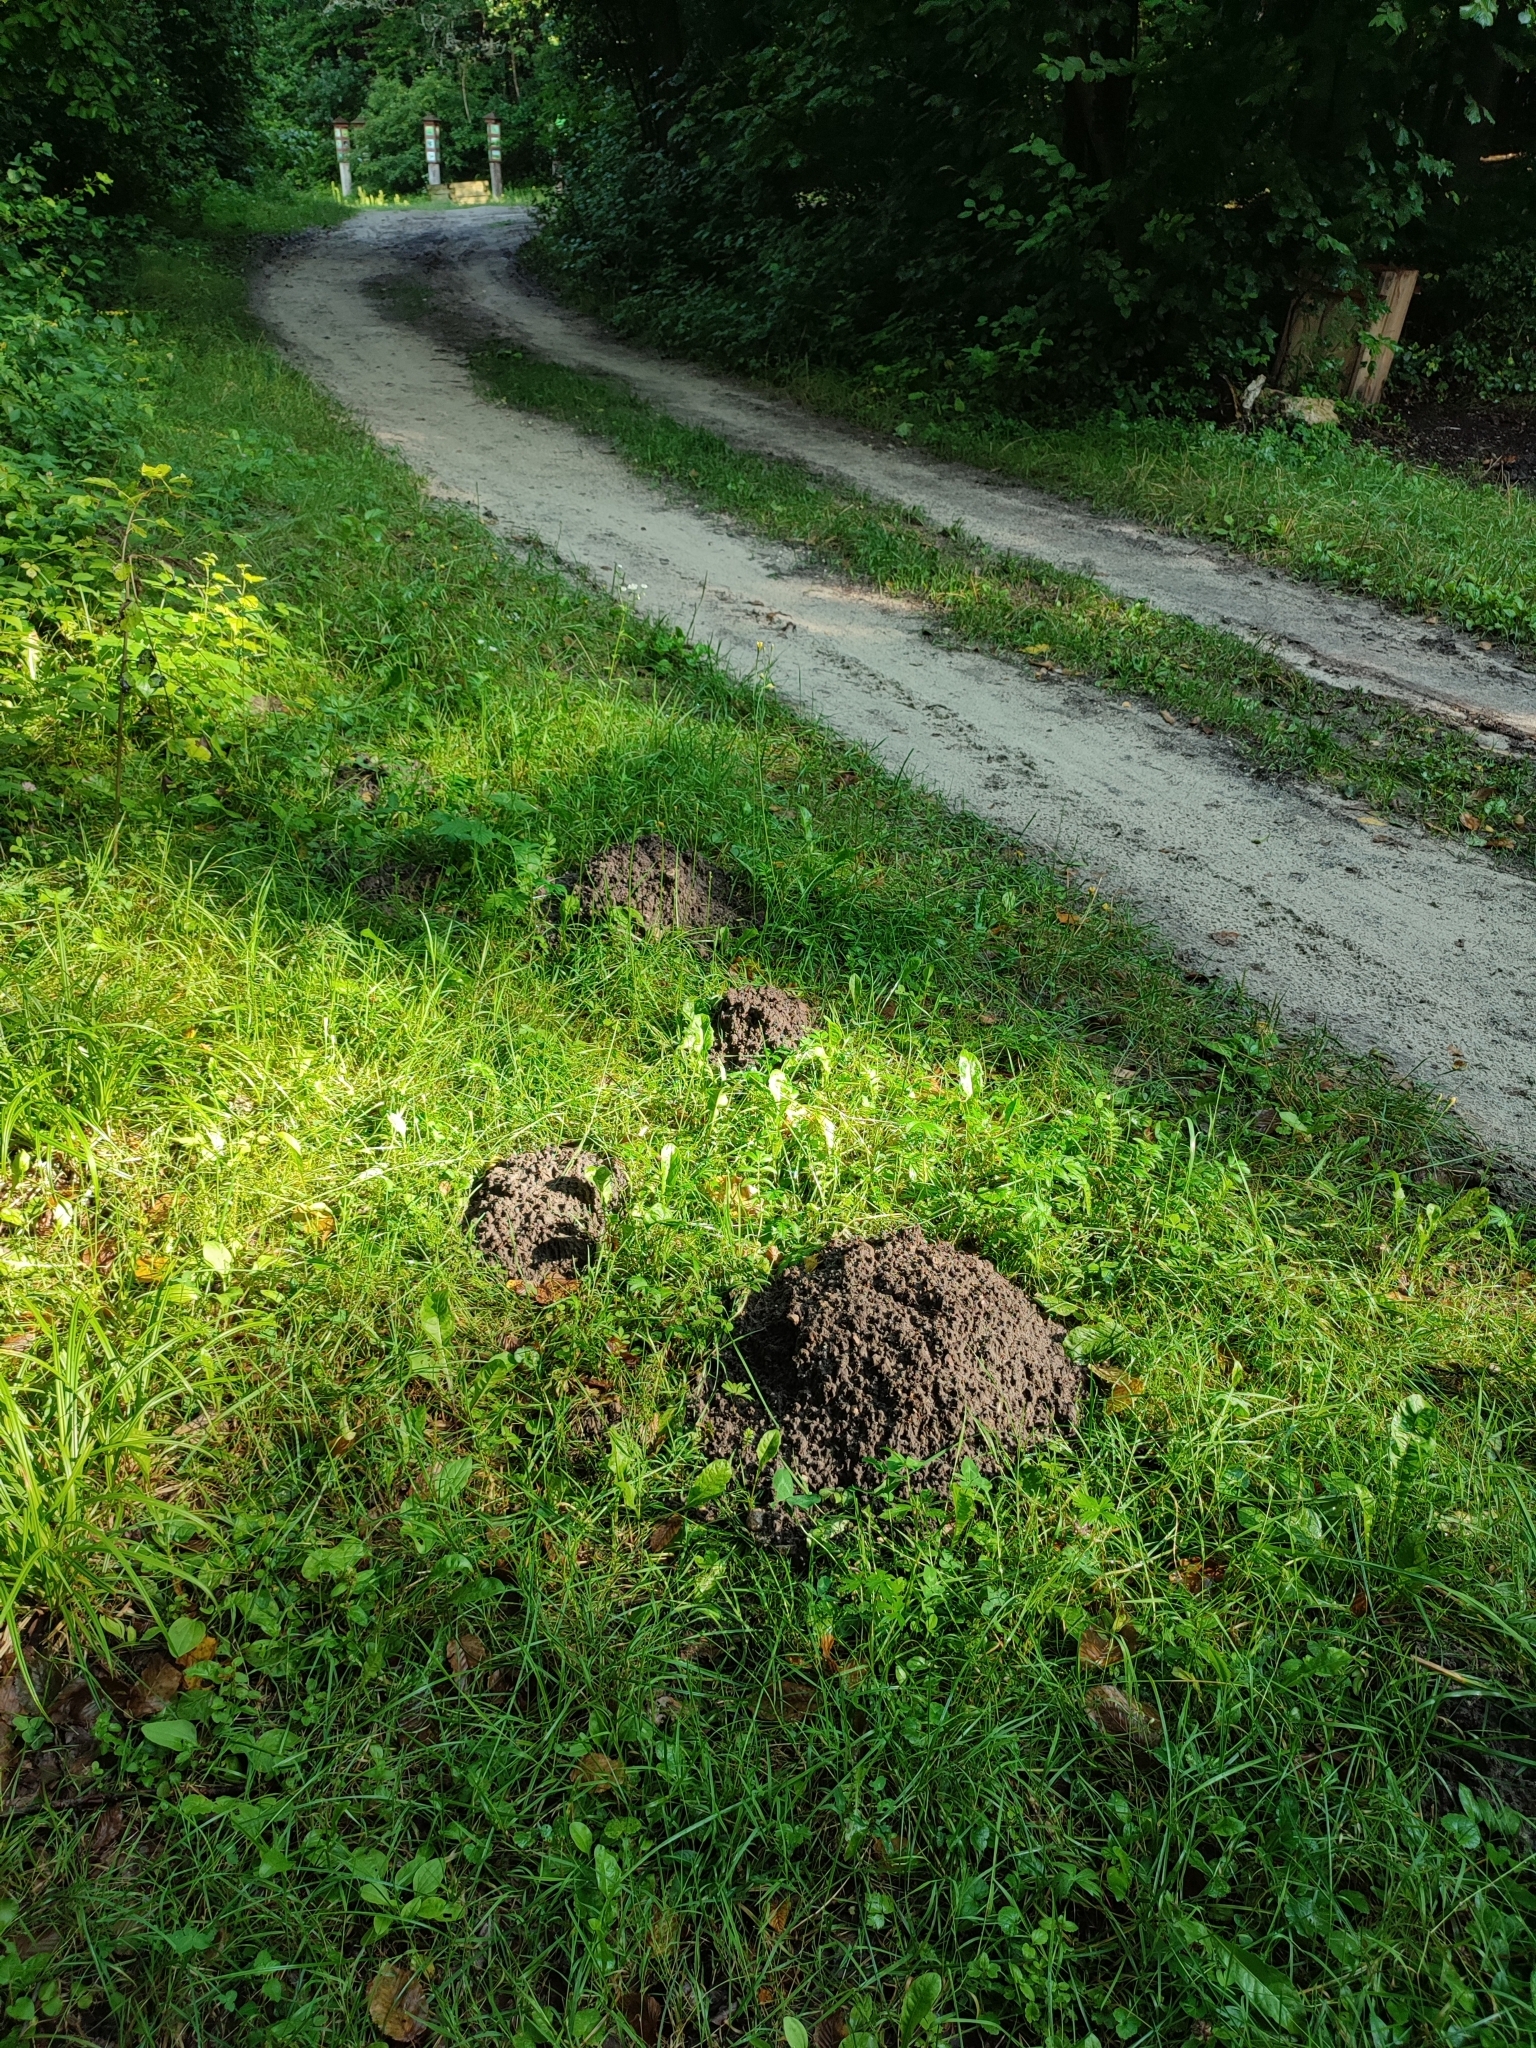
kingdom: Animalia
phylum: Chordata
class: Mammalia
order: Soricomorpha
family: Talpidae
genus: Talpa
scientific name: Talpa europaea
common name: European mole
